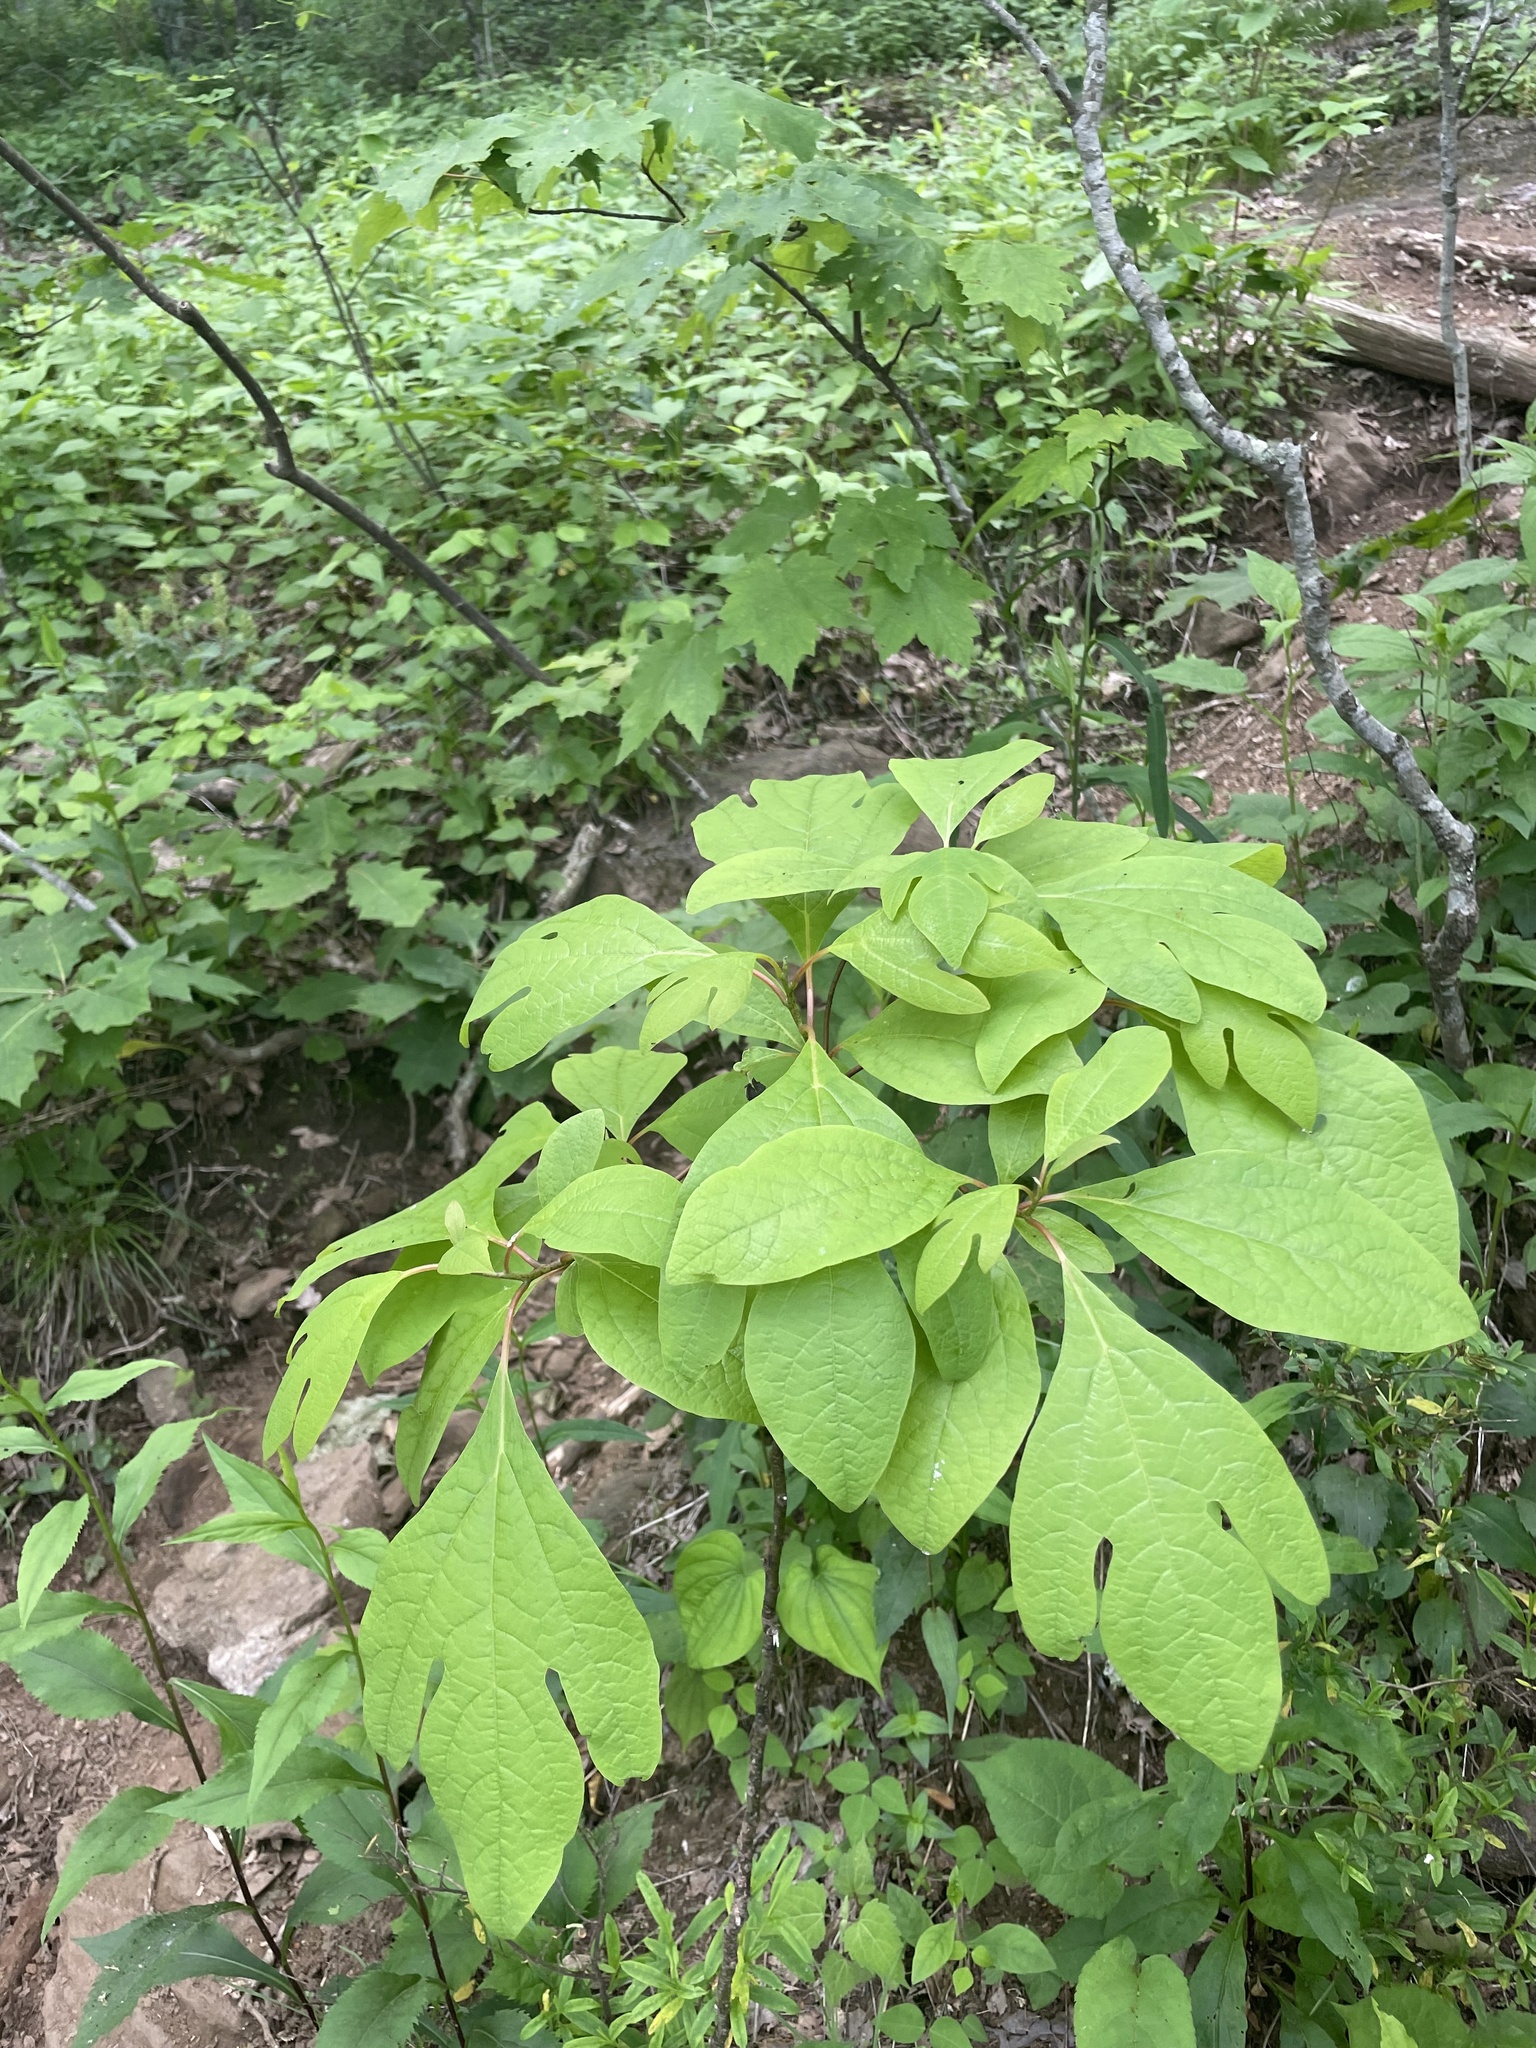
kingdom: Plantae
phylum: Tracheophyta
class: Magnoliopsida
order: Laurales
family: Lauraceae
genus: Sassafras
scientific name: Sassafras albidum
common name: Sassafras
